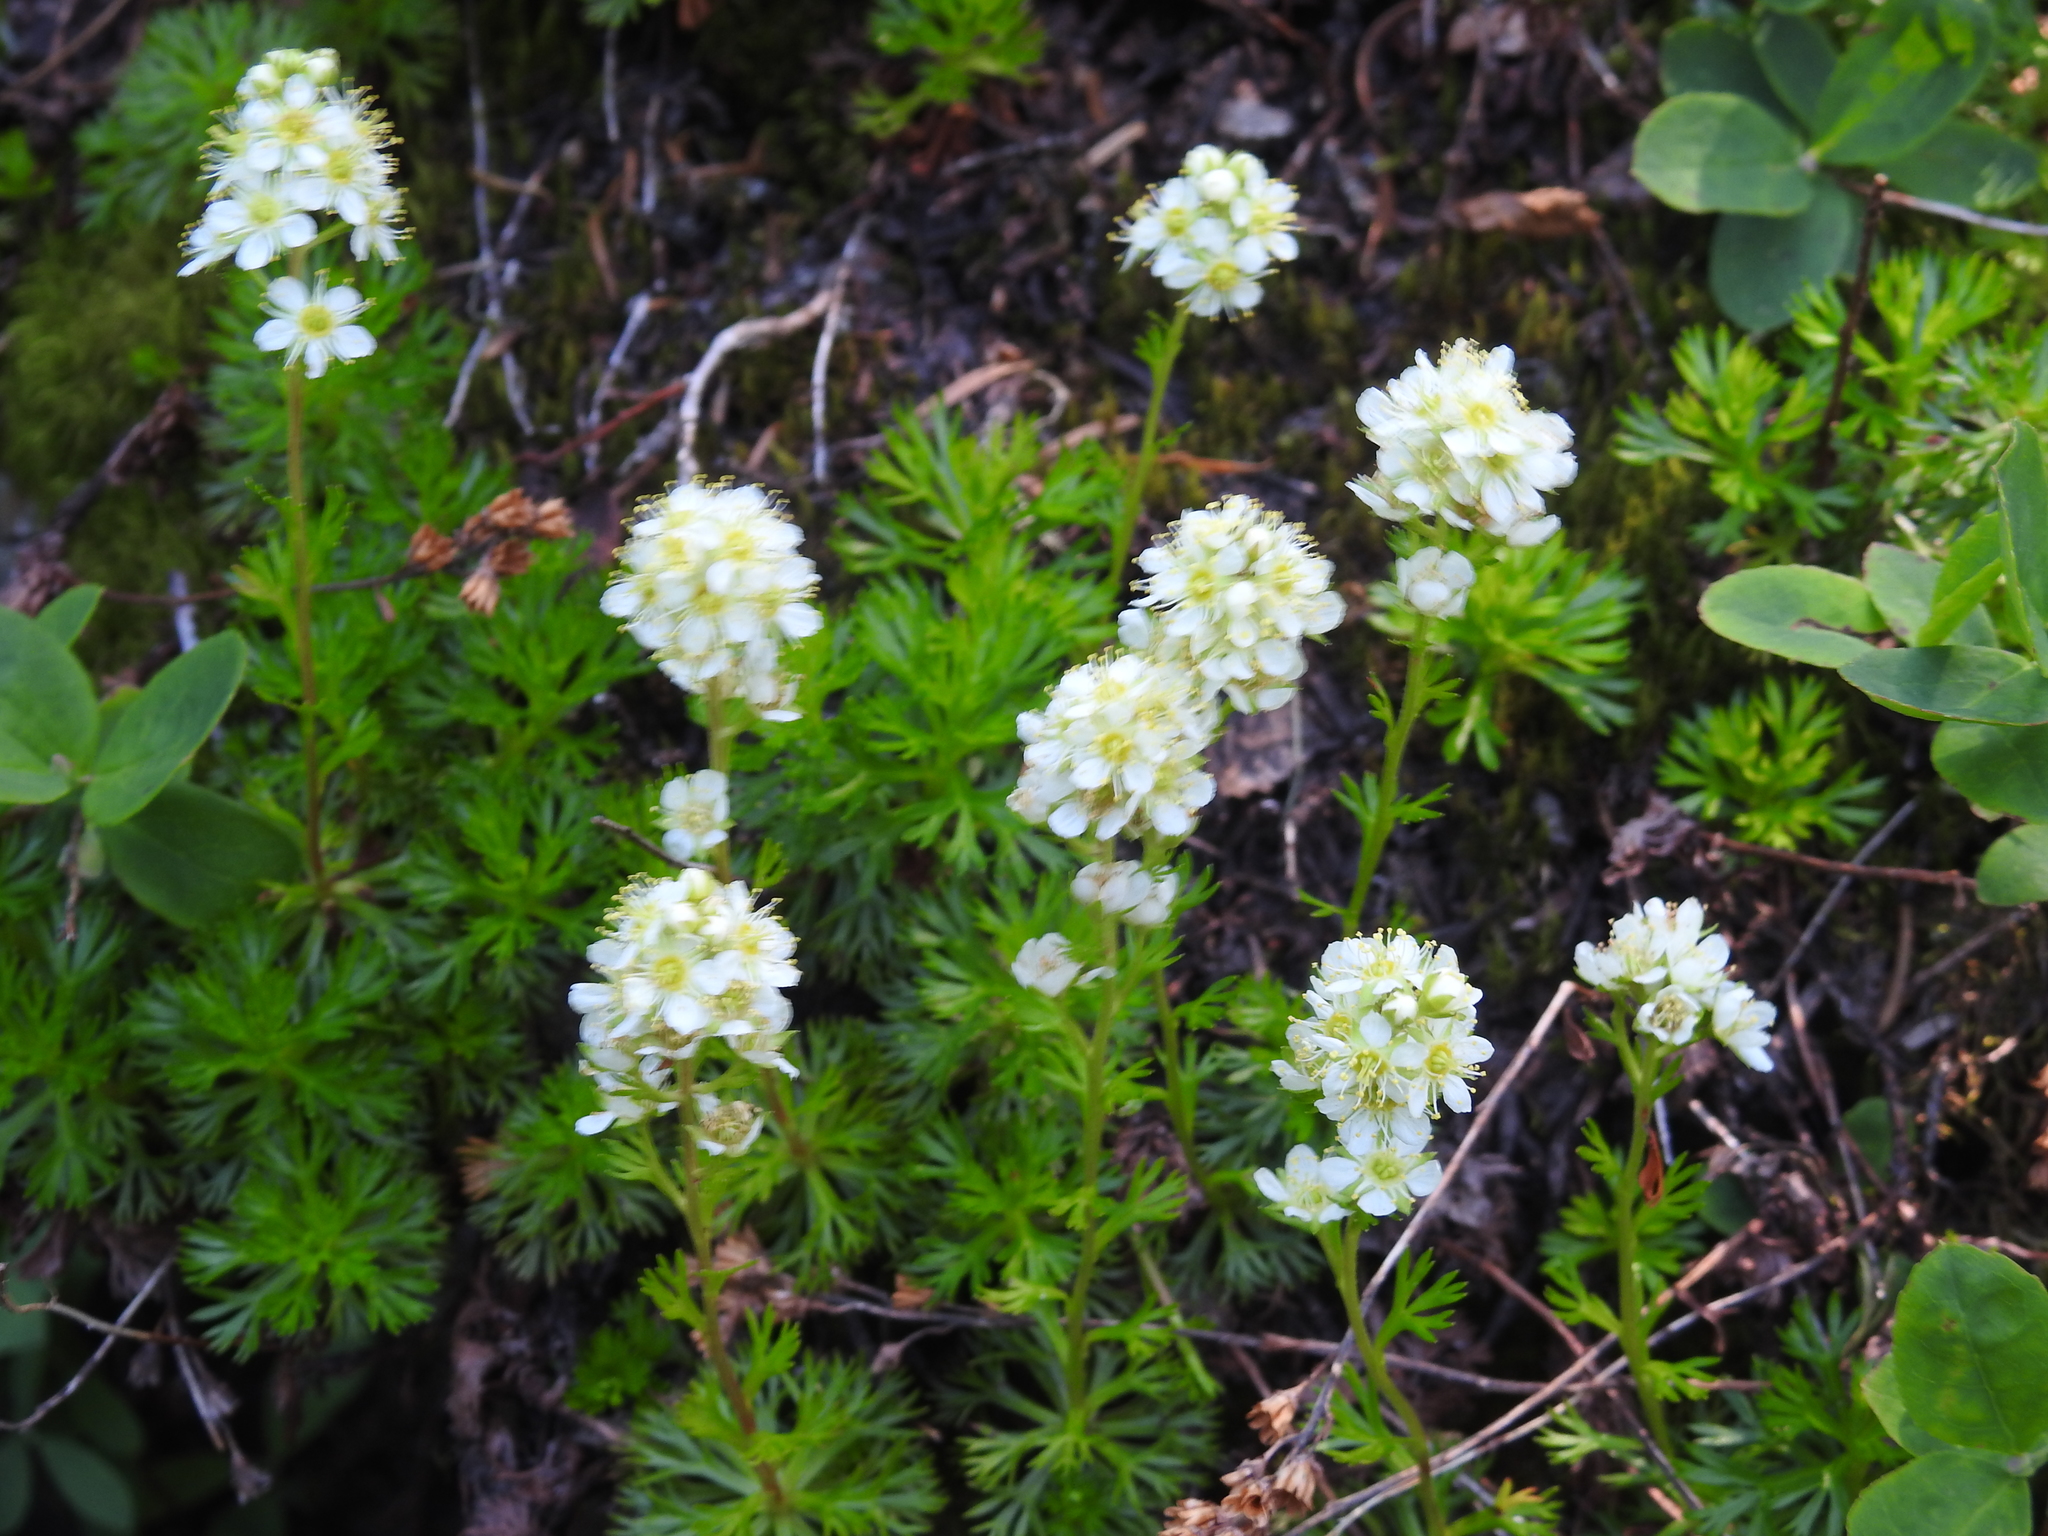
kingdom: Plantae
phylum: Tracheophyta
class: Magnoliopsida
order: Rosales
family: Rosaceae
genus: Luetkea
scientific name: Luetkea pectinata
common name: Partridgefoot
